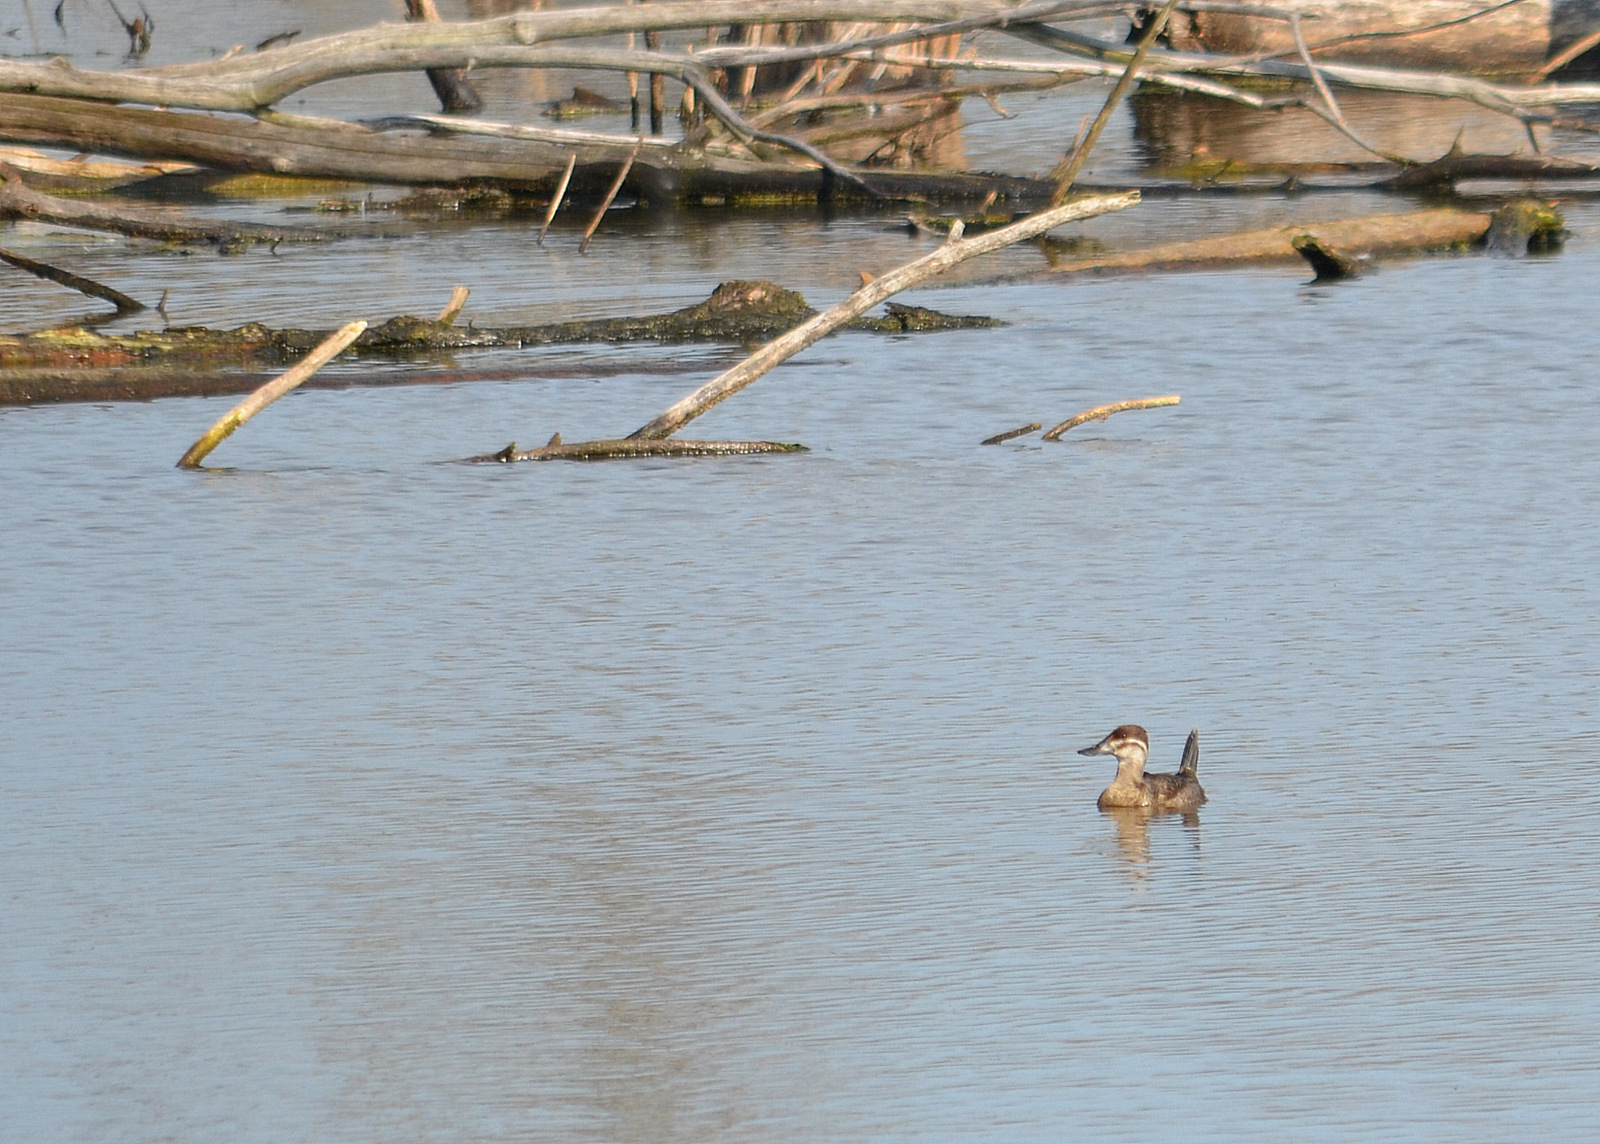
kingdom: Animalia
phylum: Chordata
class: Aves
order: Anseriformes
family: Anatidae
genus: Oxyura
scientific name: Oxyura jamaicensis
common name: Ruddy duck
